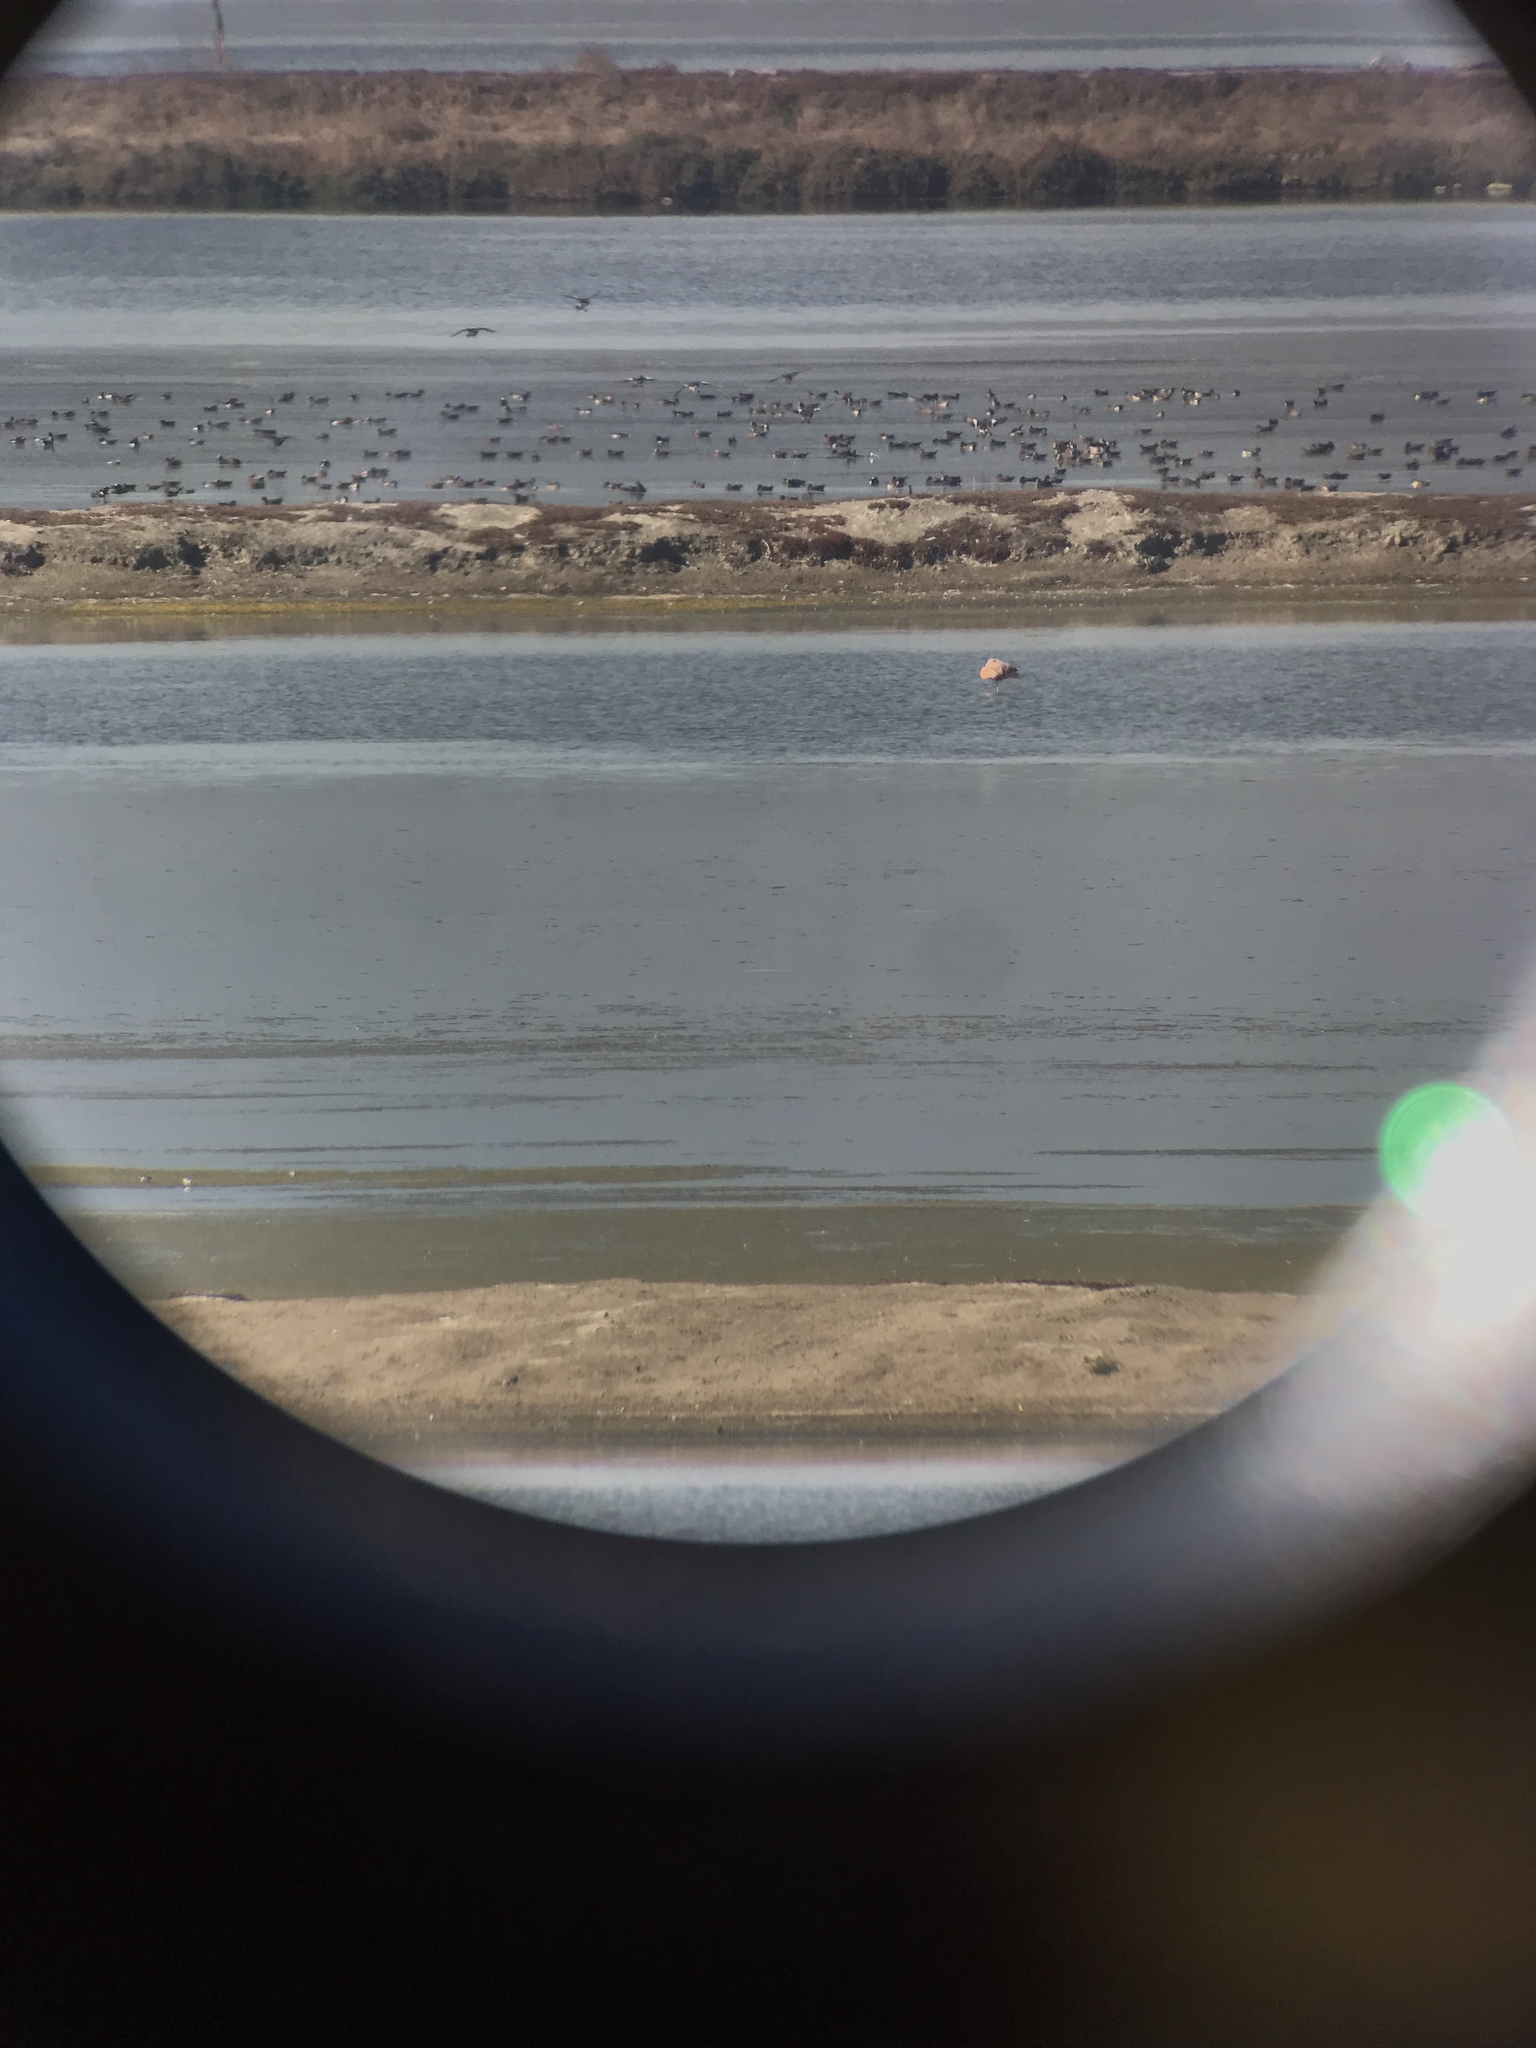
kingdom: Animalia
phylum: Chordata
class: Aves
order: Phoenicopteriformes
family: Phoenicopteridae
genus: Phoenicopterus
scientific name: Phoenicopterus chilensis
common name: Chilean flamingo
